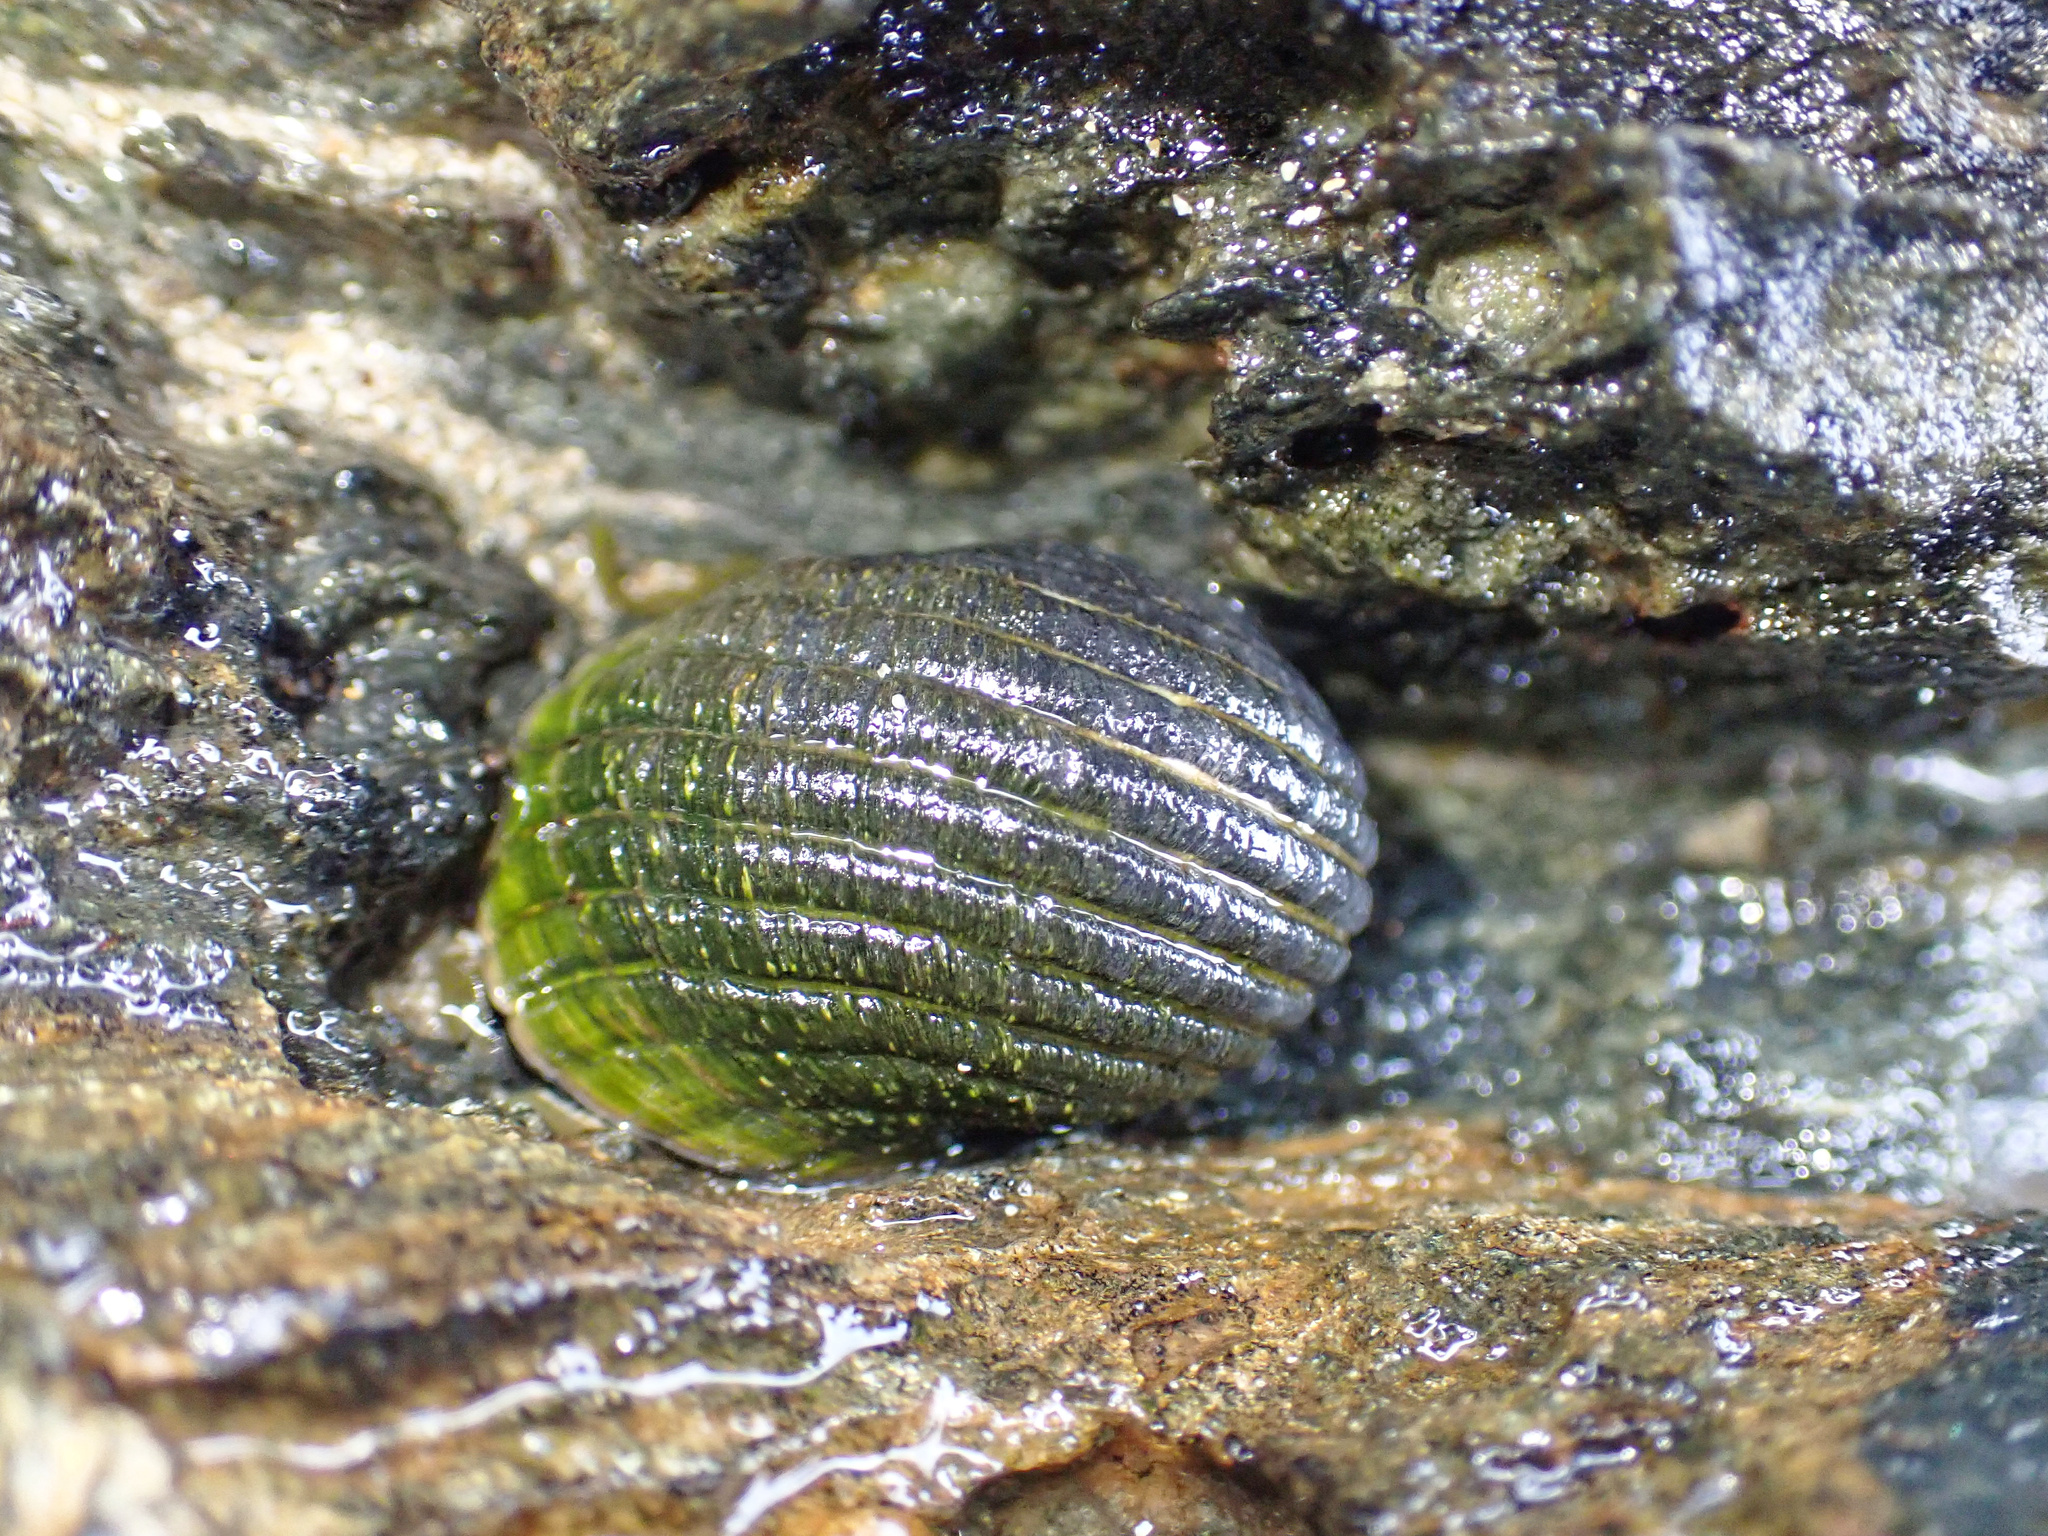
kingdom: Animalia
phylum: Mollusca
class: Gastropoda
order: Cycloneritida
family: Neritidae
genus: Nerita
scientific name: Nerita plicata
